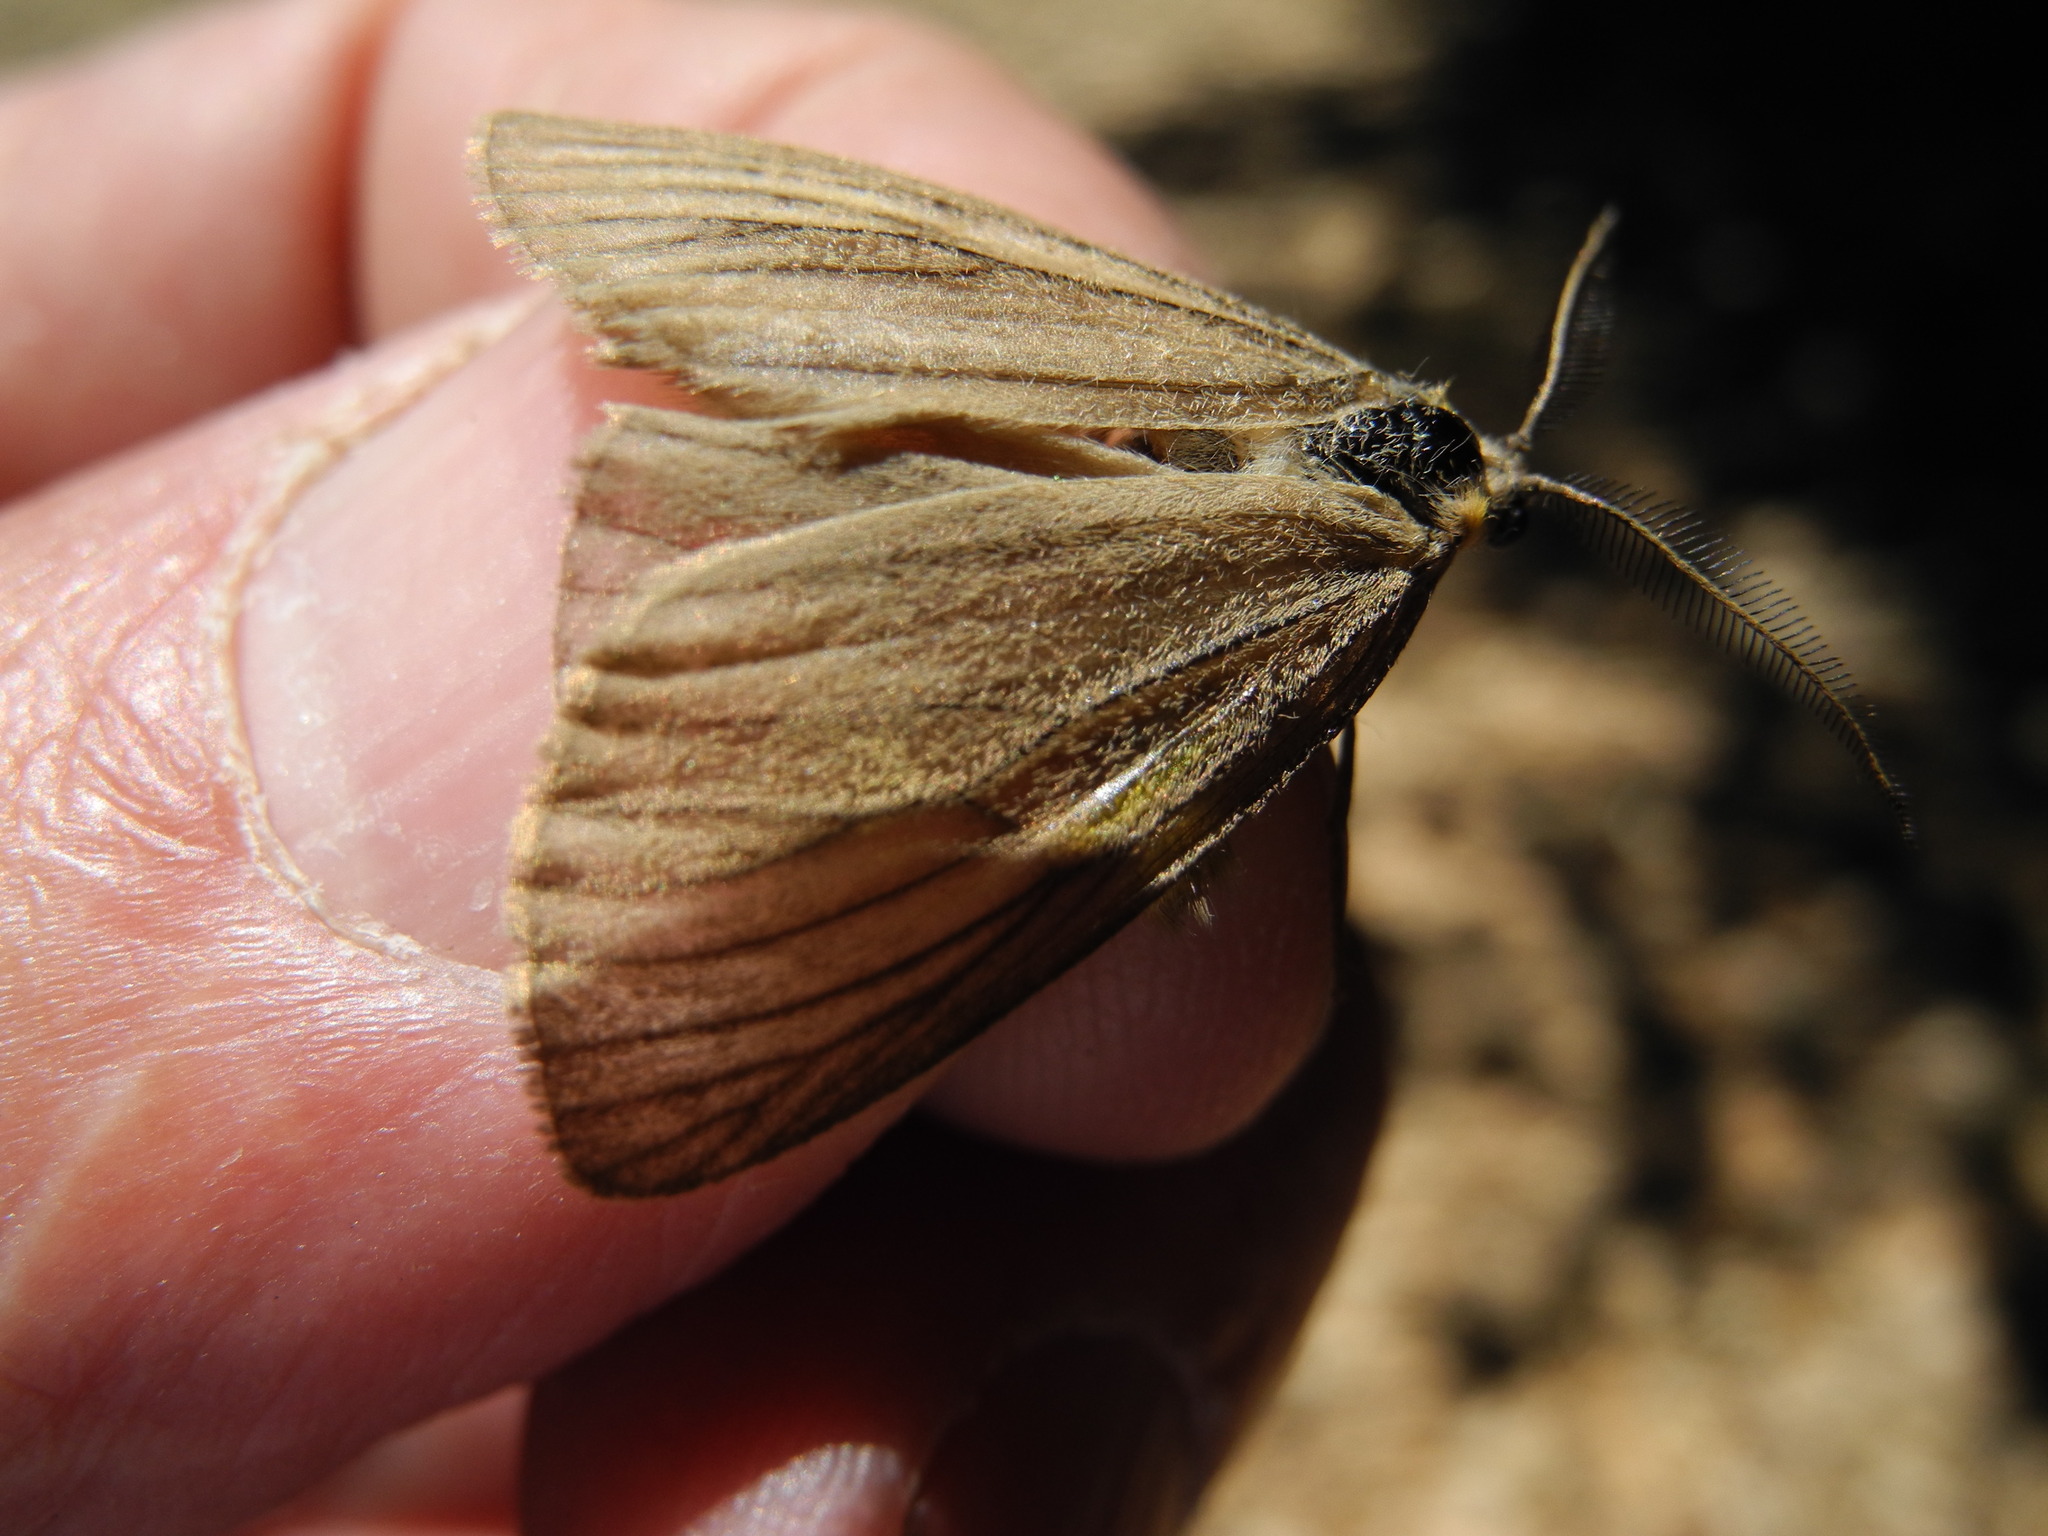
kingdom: Animalia
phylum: Arthropoda
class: Insecta
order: Lepidoptera
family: Notodontidae
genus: Phryganidia
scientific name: Phryganidia californica
